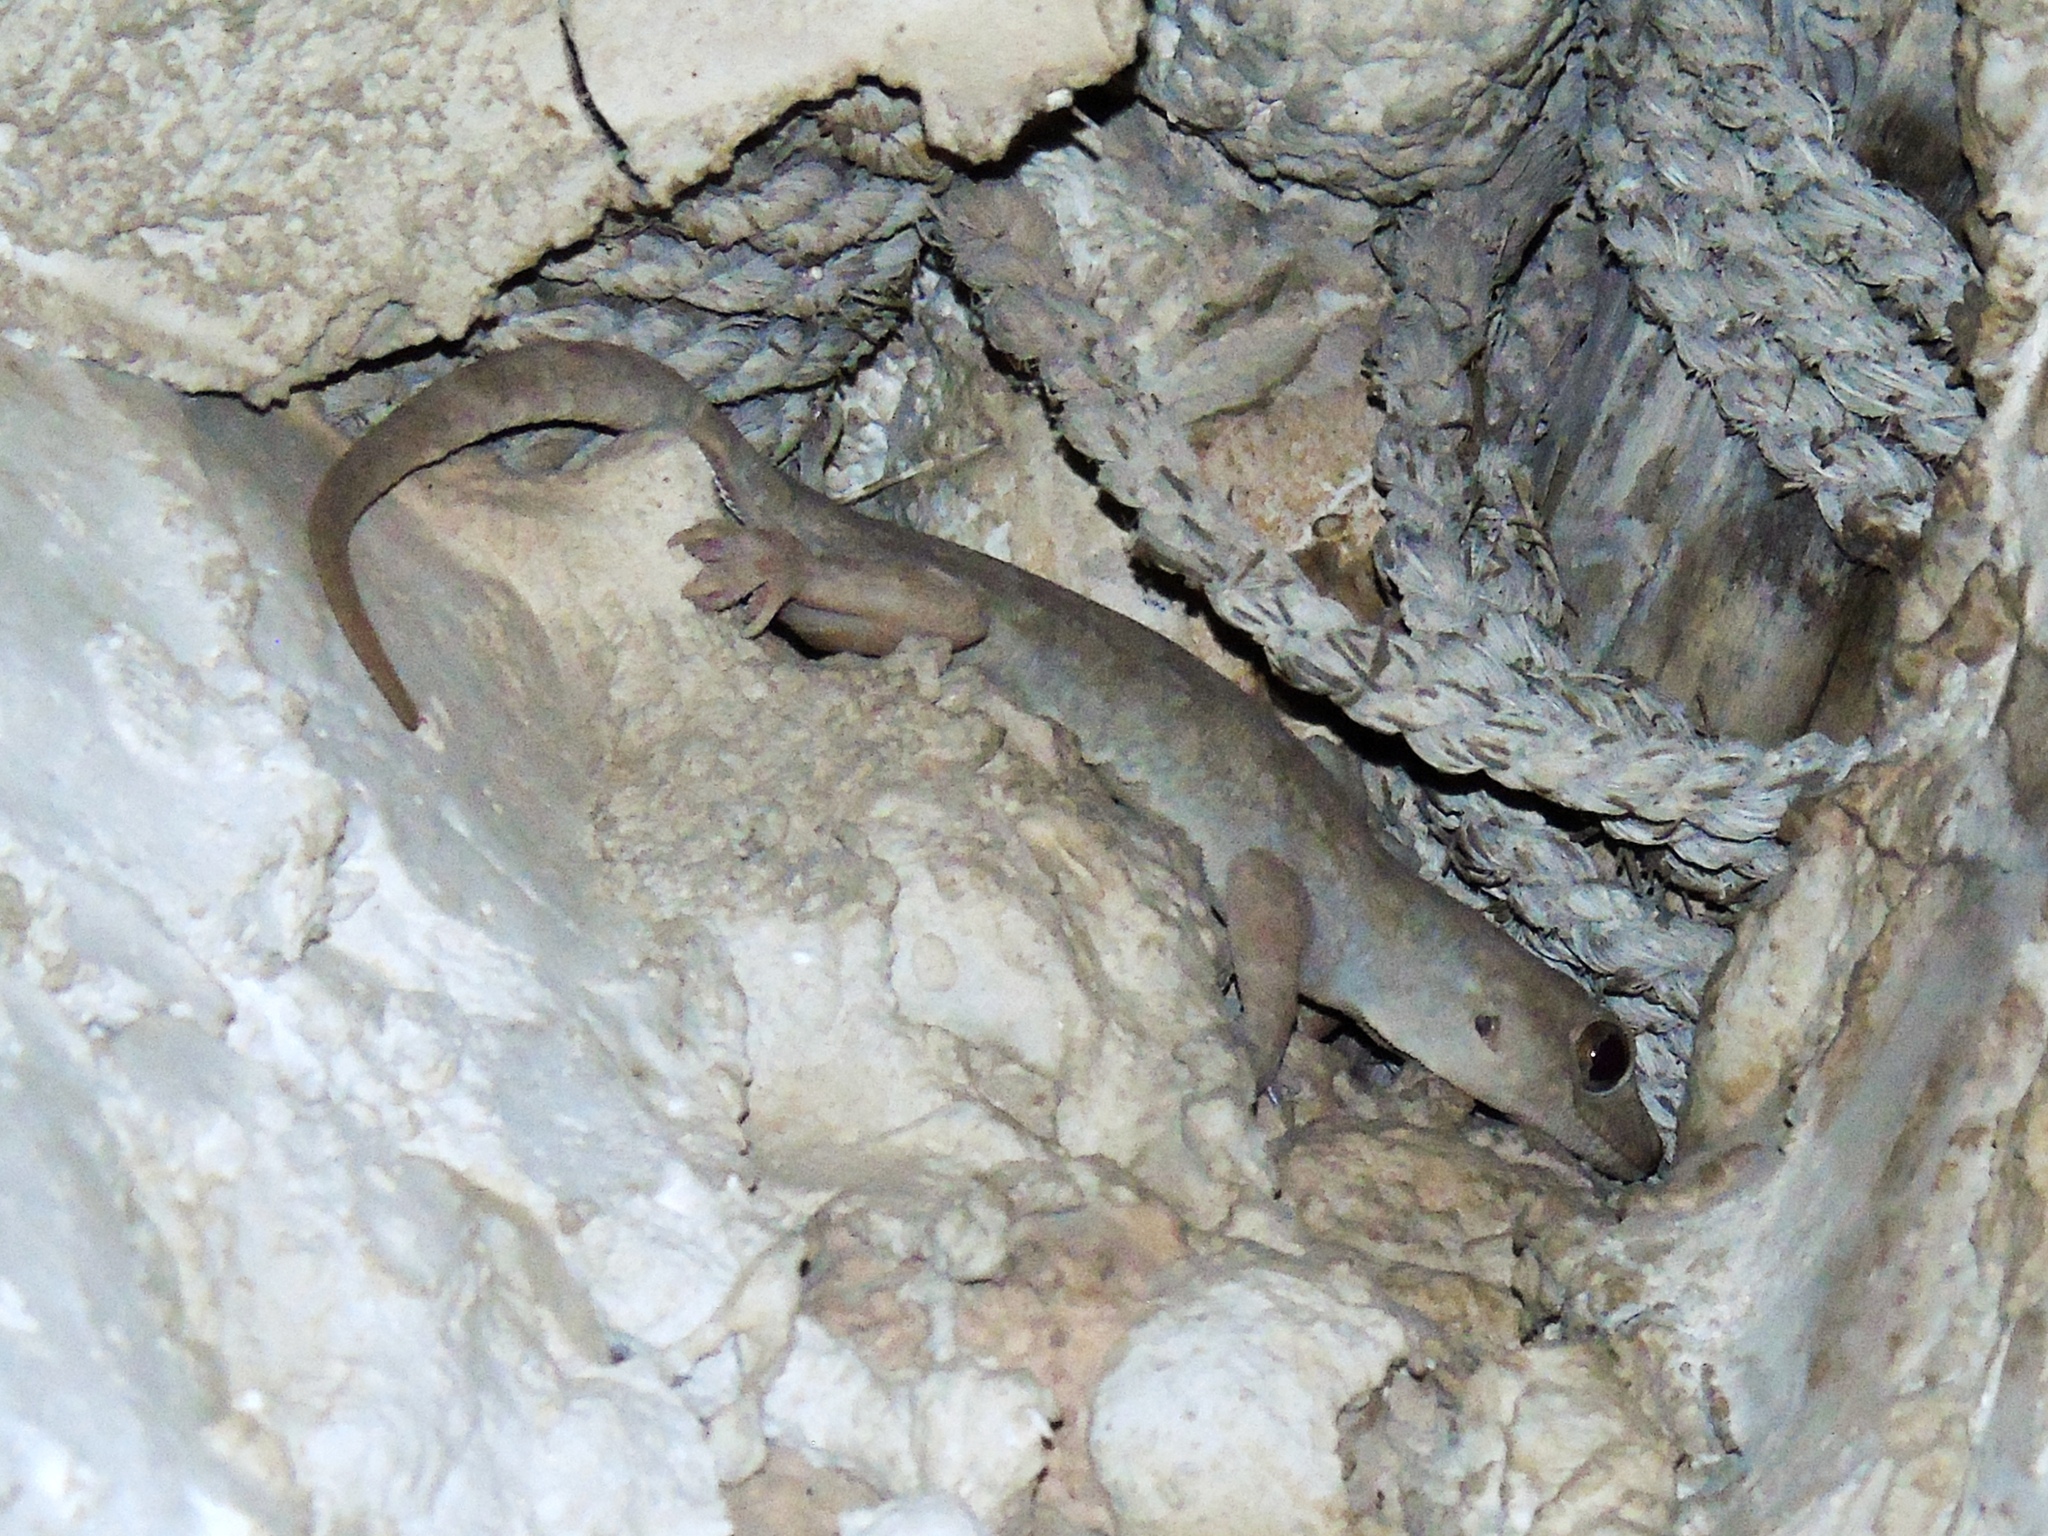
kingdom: Animalia
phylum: Chordata
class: Squamata
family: Gekkonidae
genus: Hemidactylus
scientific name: Hemidactylus flaviviridis
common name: Northern house gecko
